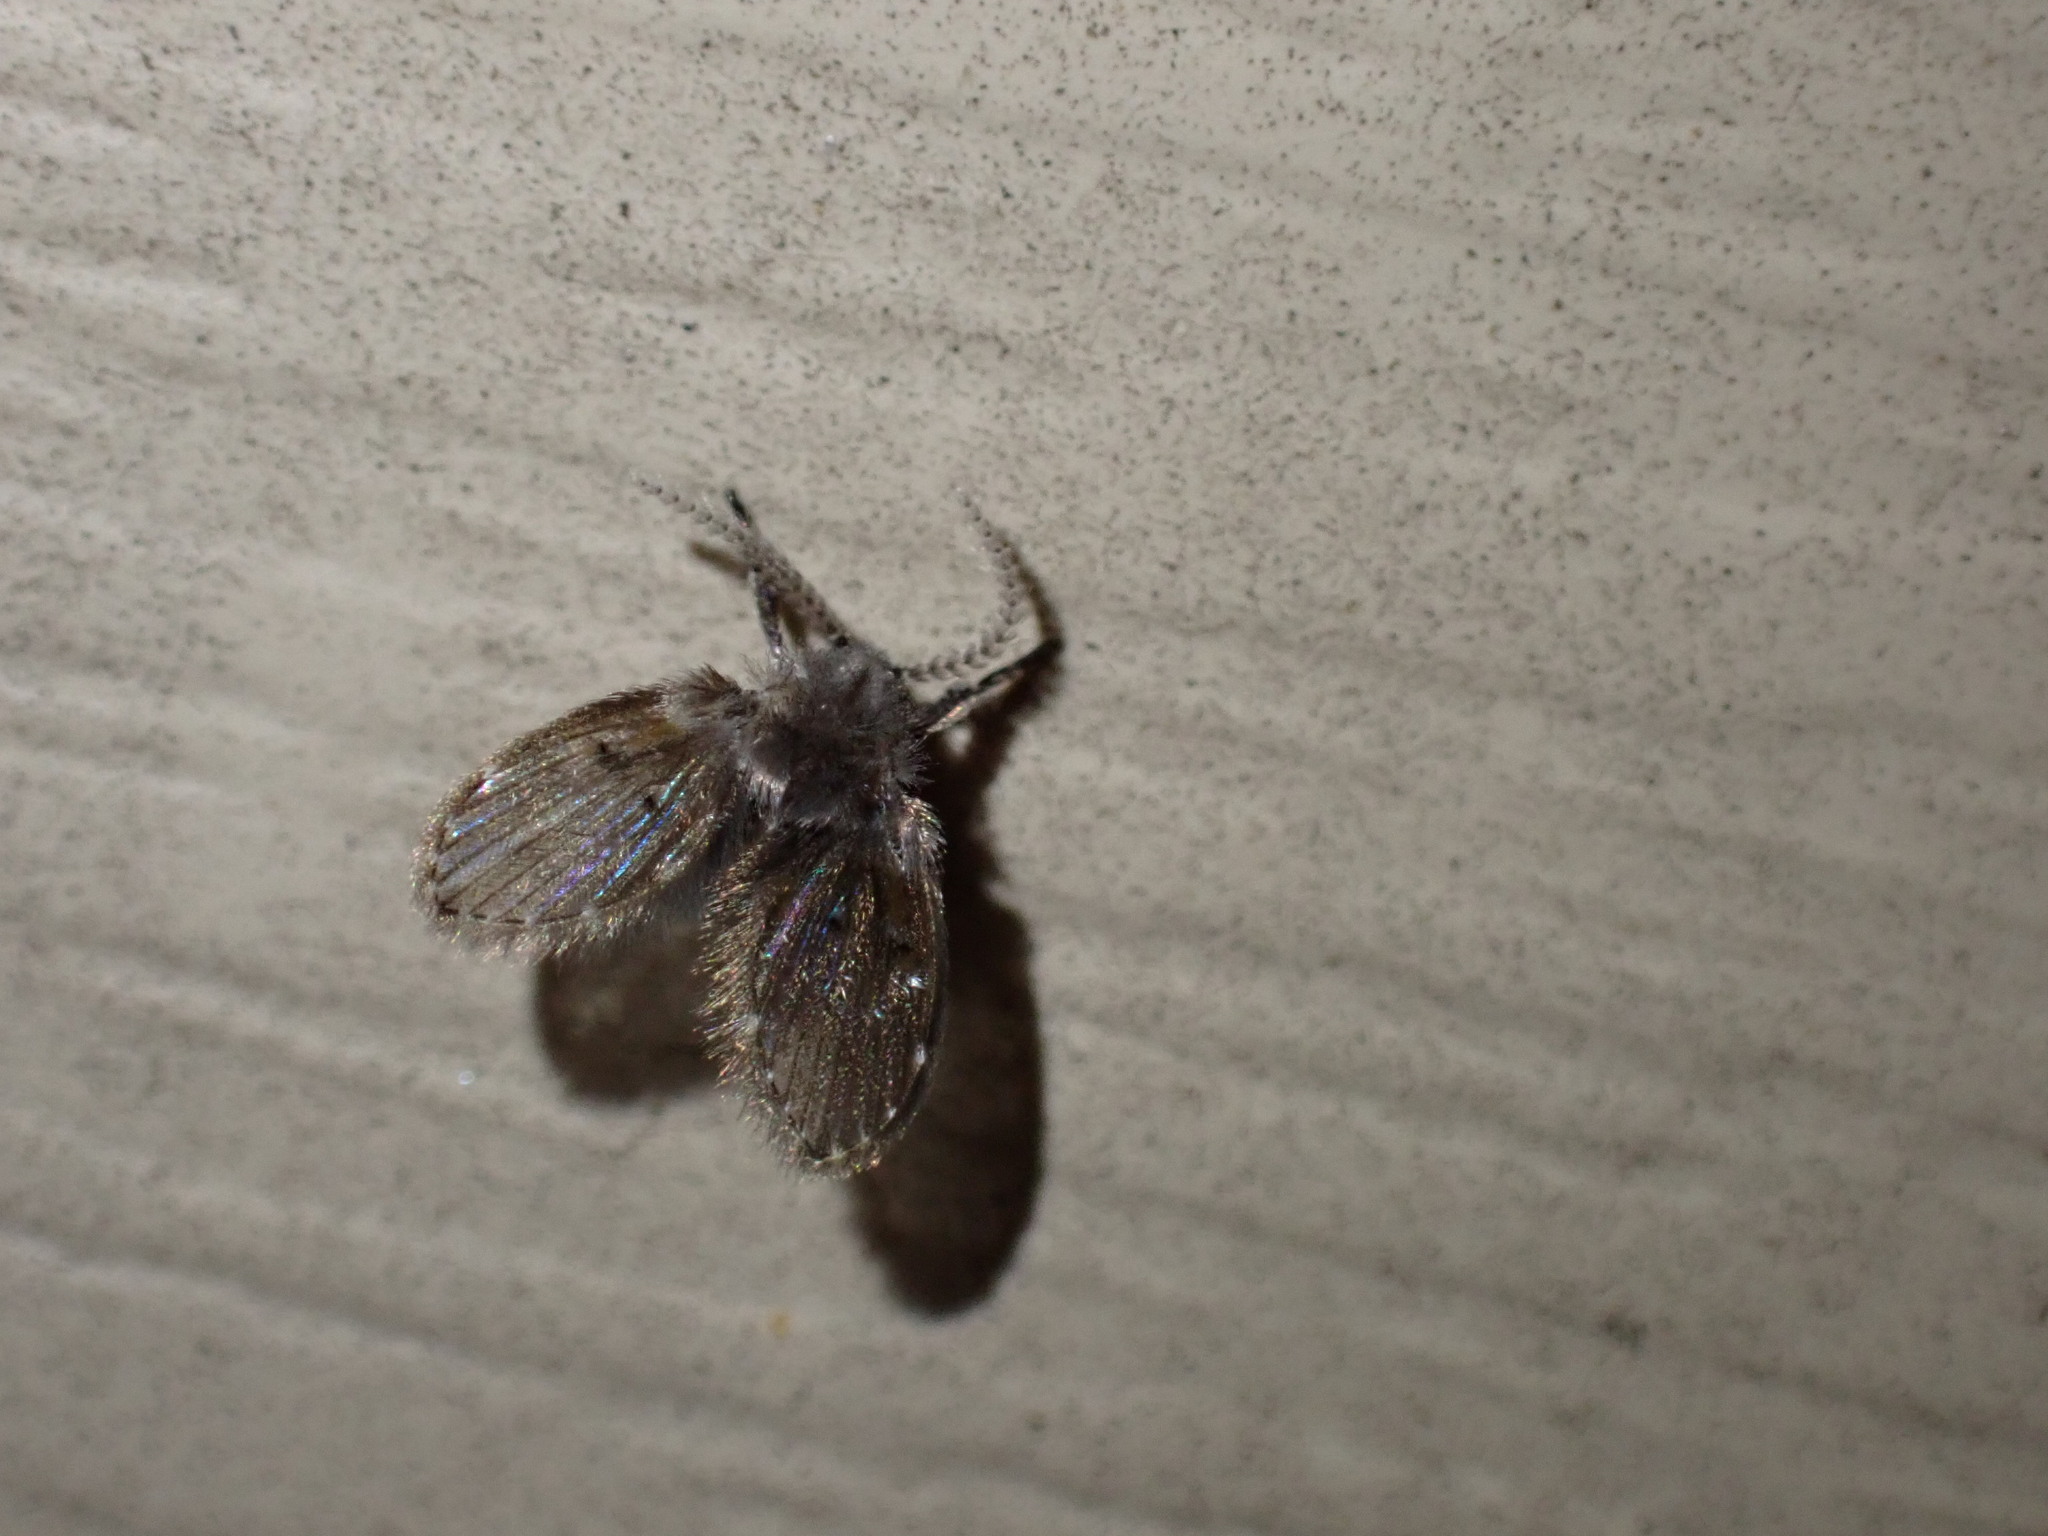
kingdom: Animalia
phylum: Arthropoda
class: Insecta
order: Diptera
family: Psychodidae
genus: Clogmia
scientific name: Clogmia albipunctatus
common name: White-spotted moth fly
